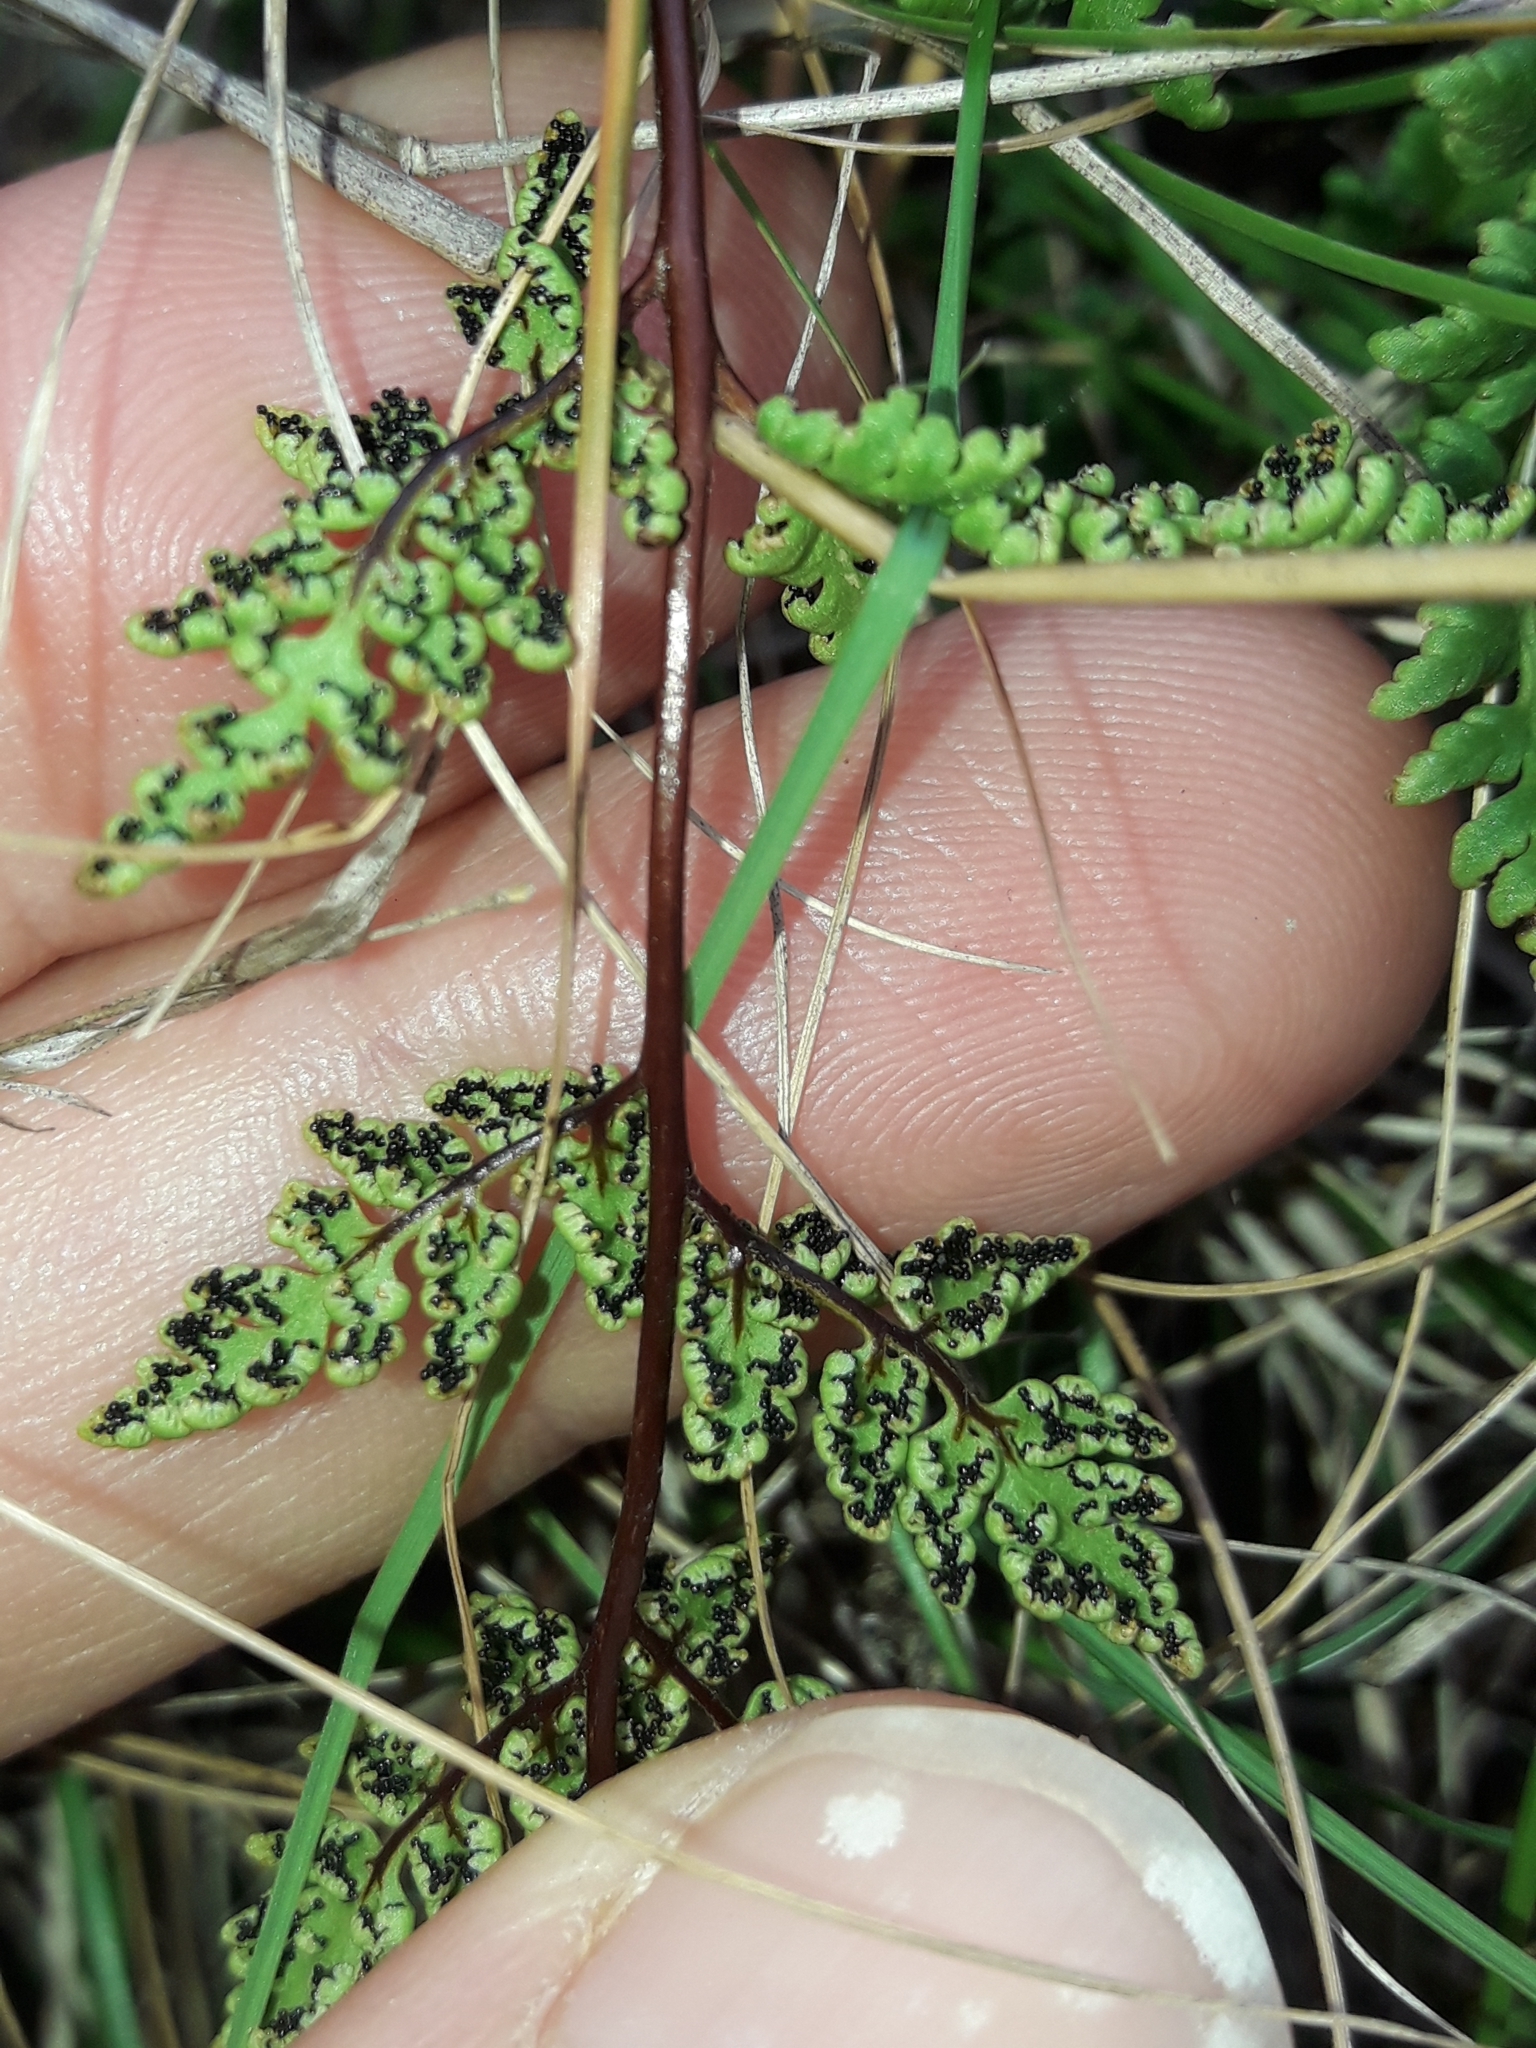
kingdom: Plantae
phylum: Tracheophyta
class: Polypodiopsida
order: Polypodiales
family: Pteridaceae
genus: Cheilanthes
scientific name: Cheilanthes sieberi
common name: Mulga fern
